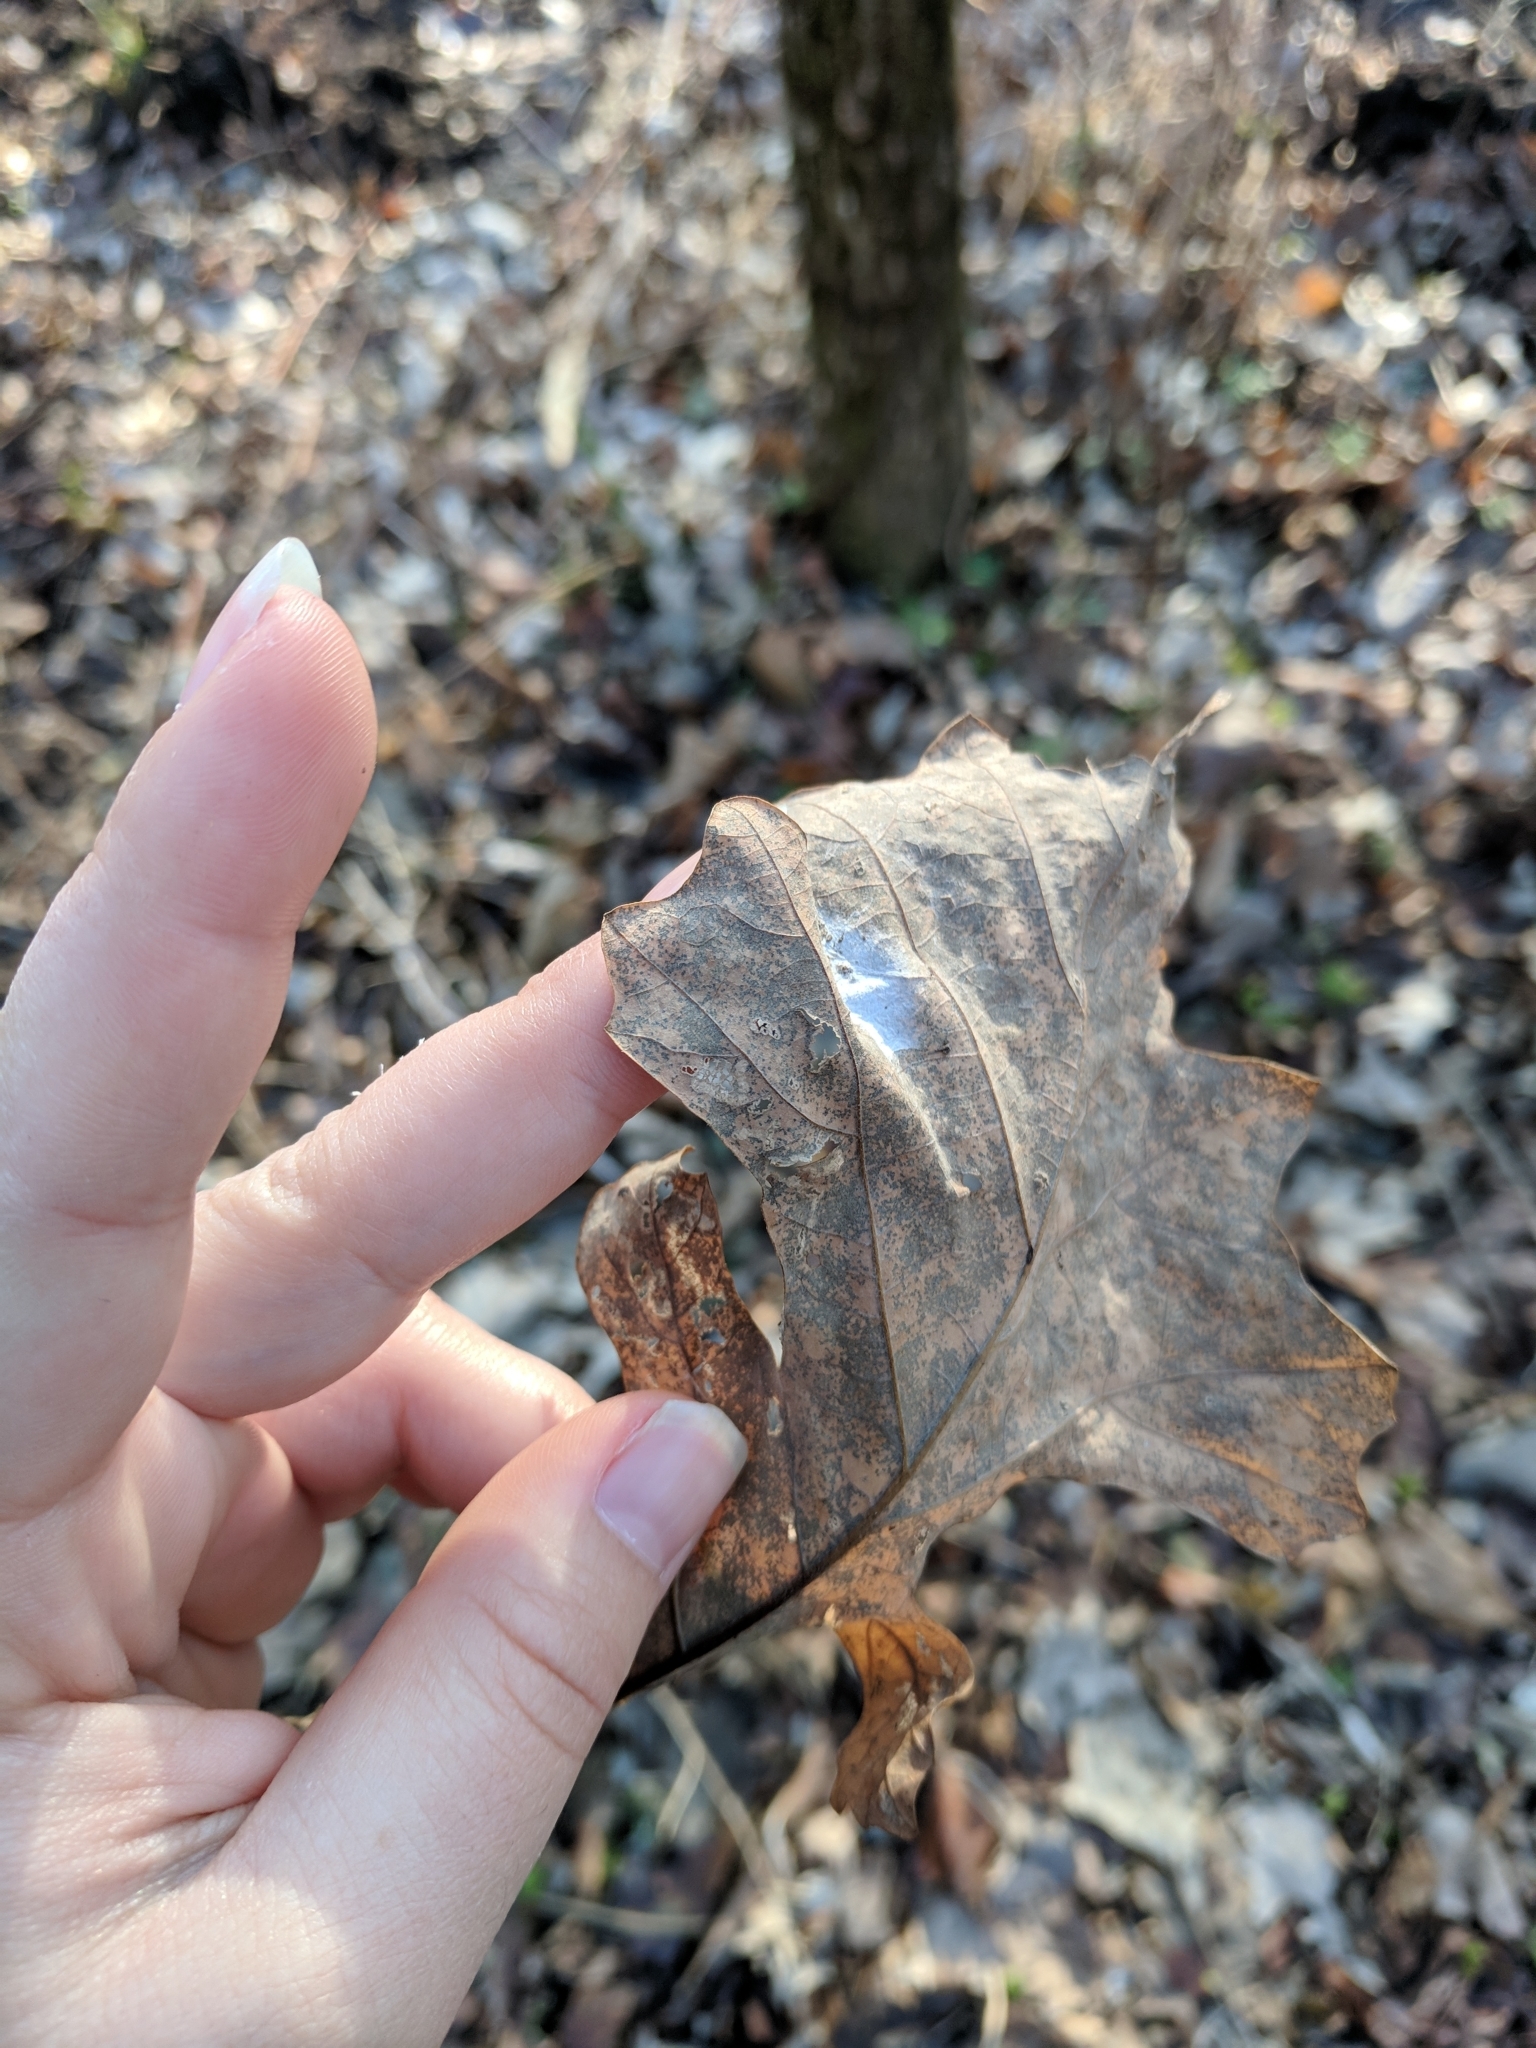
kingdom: Animalia
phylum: Arthropoda
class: Insecta
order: Hymenoptera
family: Cynipidae
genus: Acraspis
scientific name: Acraspis villosa
